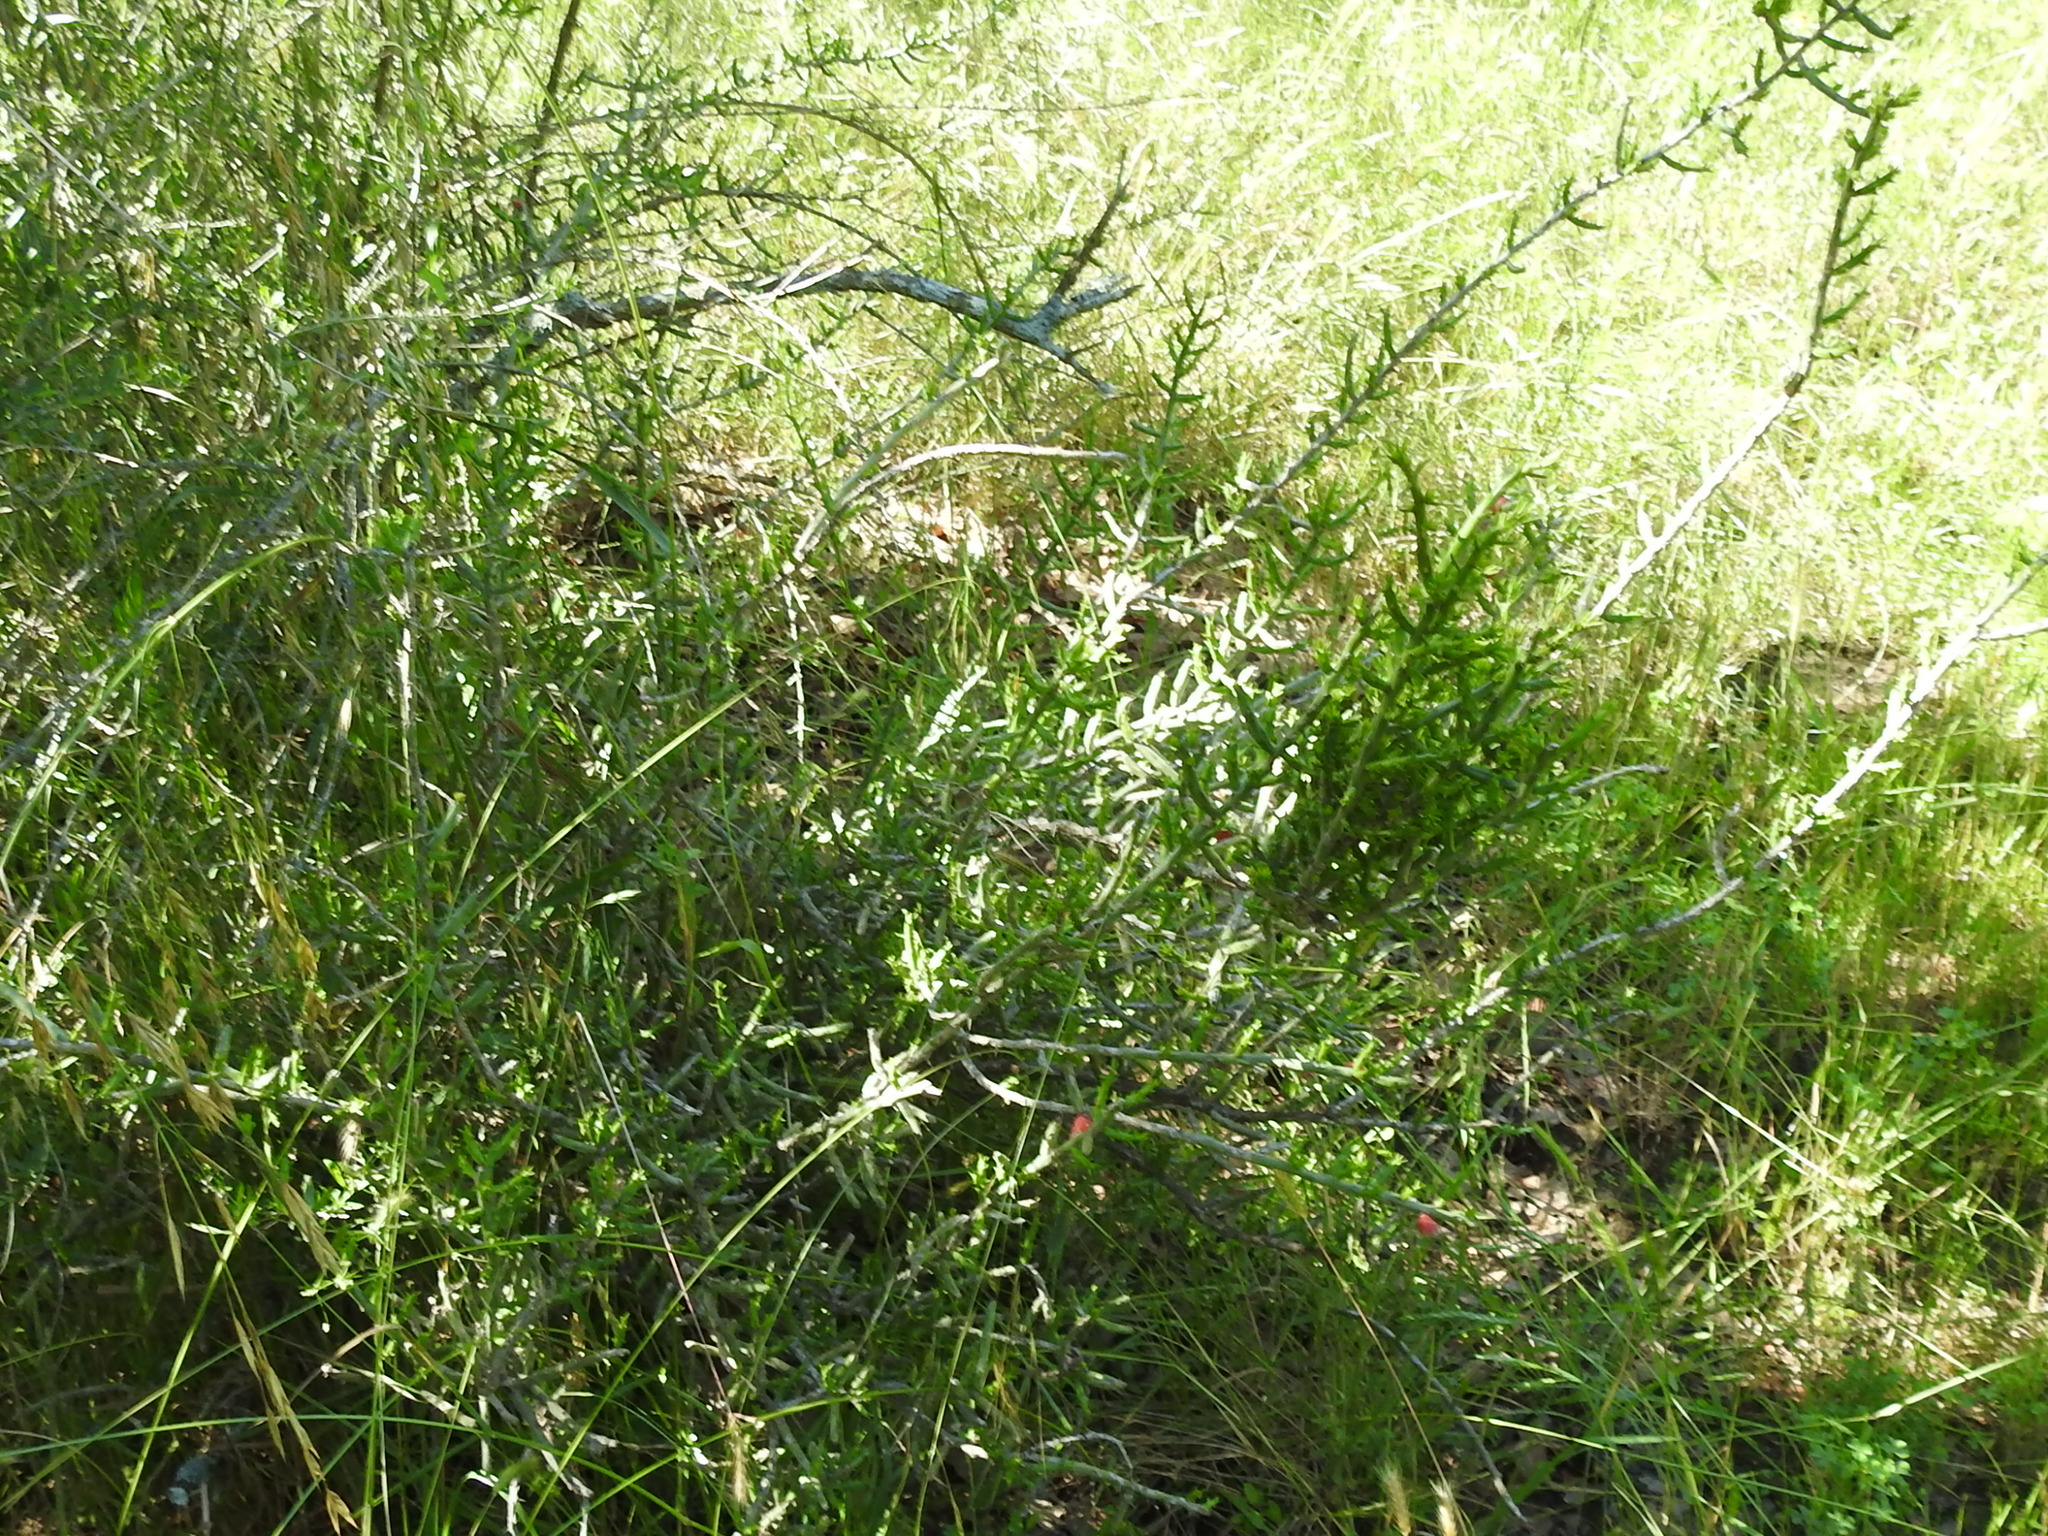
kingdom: Plantae
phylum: Tracheophyta
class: Magnoliopsida
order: Caryophyllales
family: Cactaceae
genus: Cylindropuntia
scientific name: Cylindropuntia leptocaulis
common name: Christmas cactus
